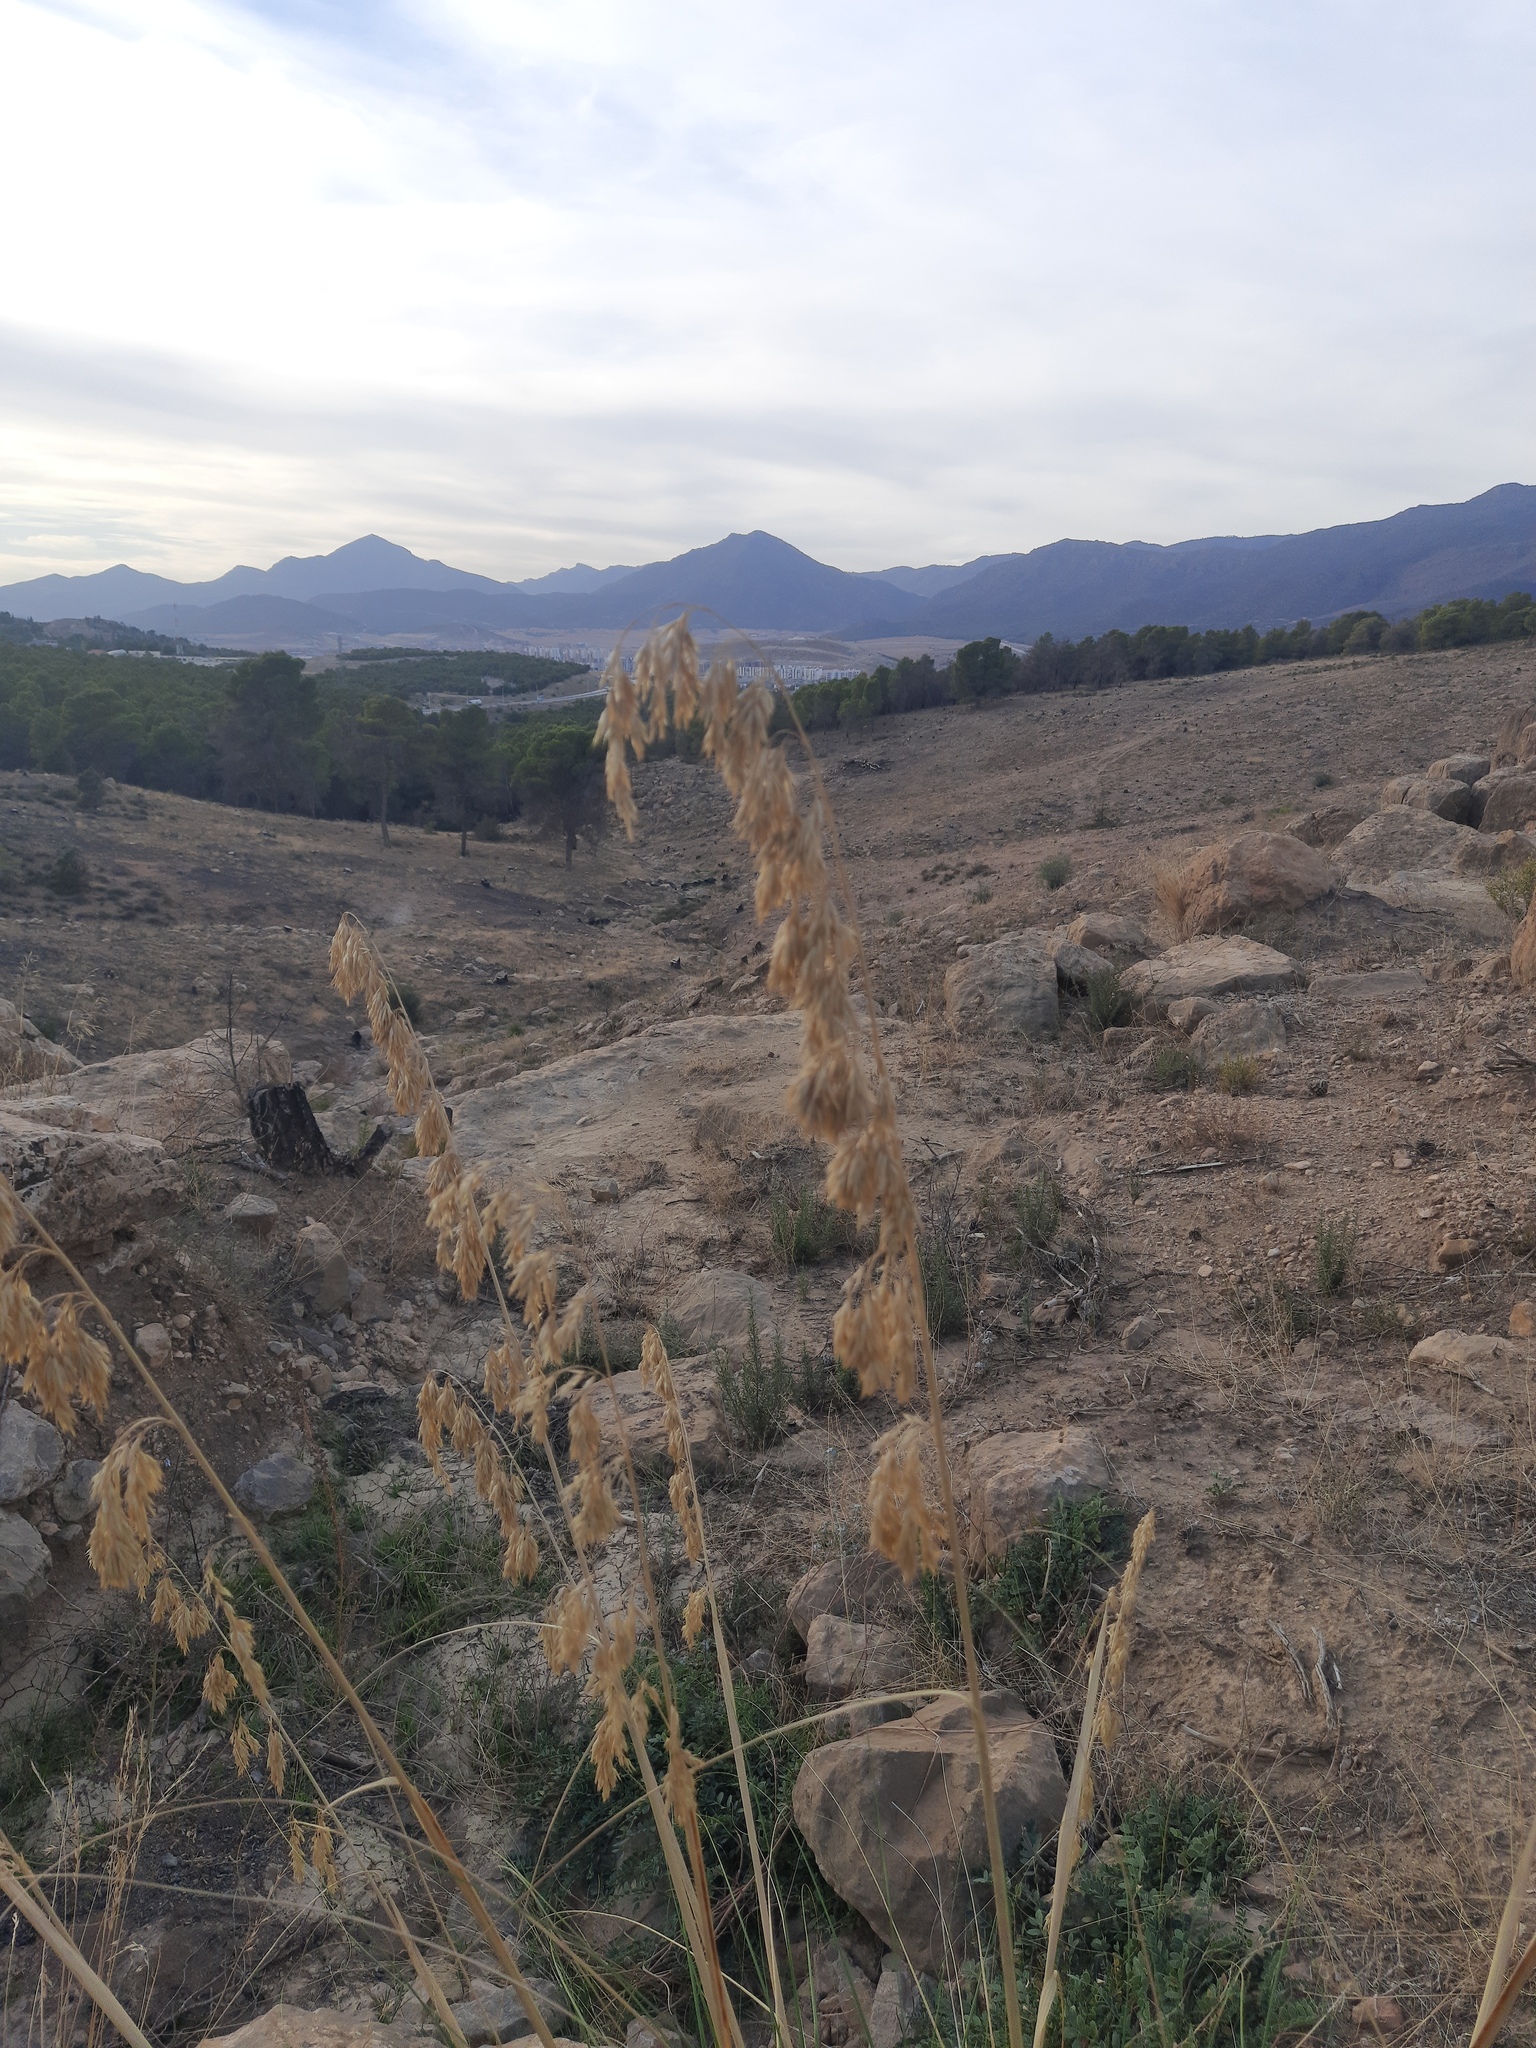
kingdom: Plantae
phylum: Tracheophyta
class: Liliopsida
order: Poales
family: Poaceae
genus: Ampelodesmos
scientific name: Ampelodesmos mauritanicus
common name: Mauritanian grass
